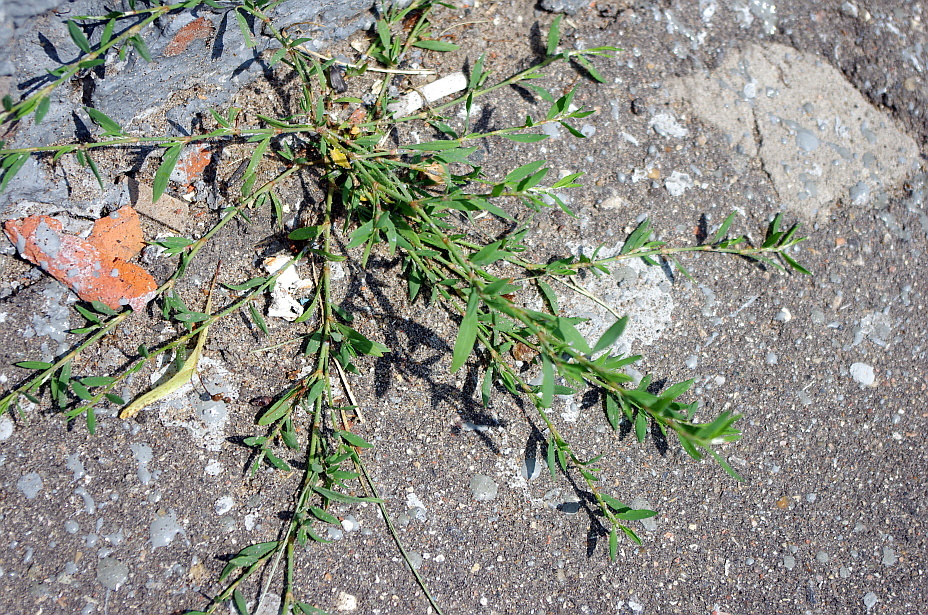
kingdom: Plantae
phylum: Tracheophyta
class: Magnoliopsida
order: Caryophyllales
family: Polygonaceae
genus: Polygonum
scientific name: Polygonum
